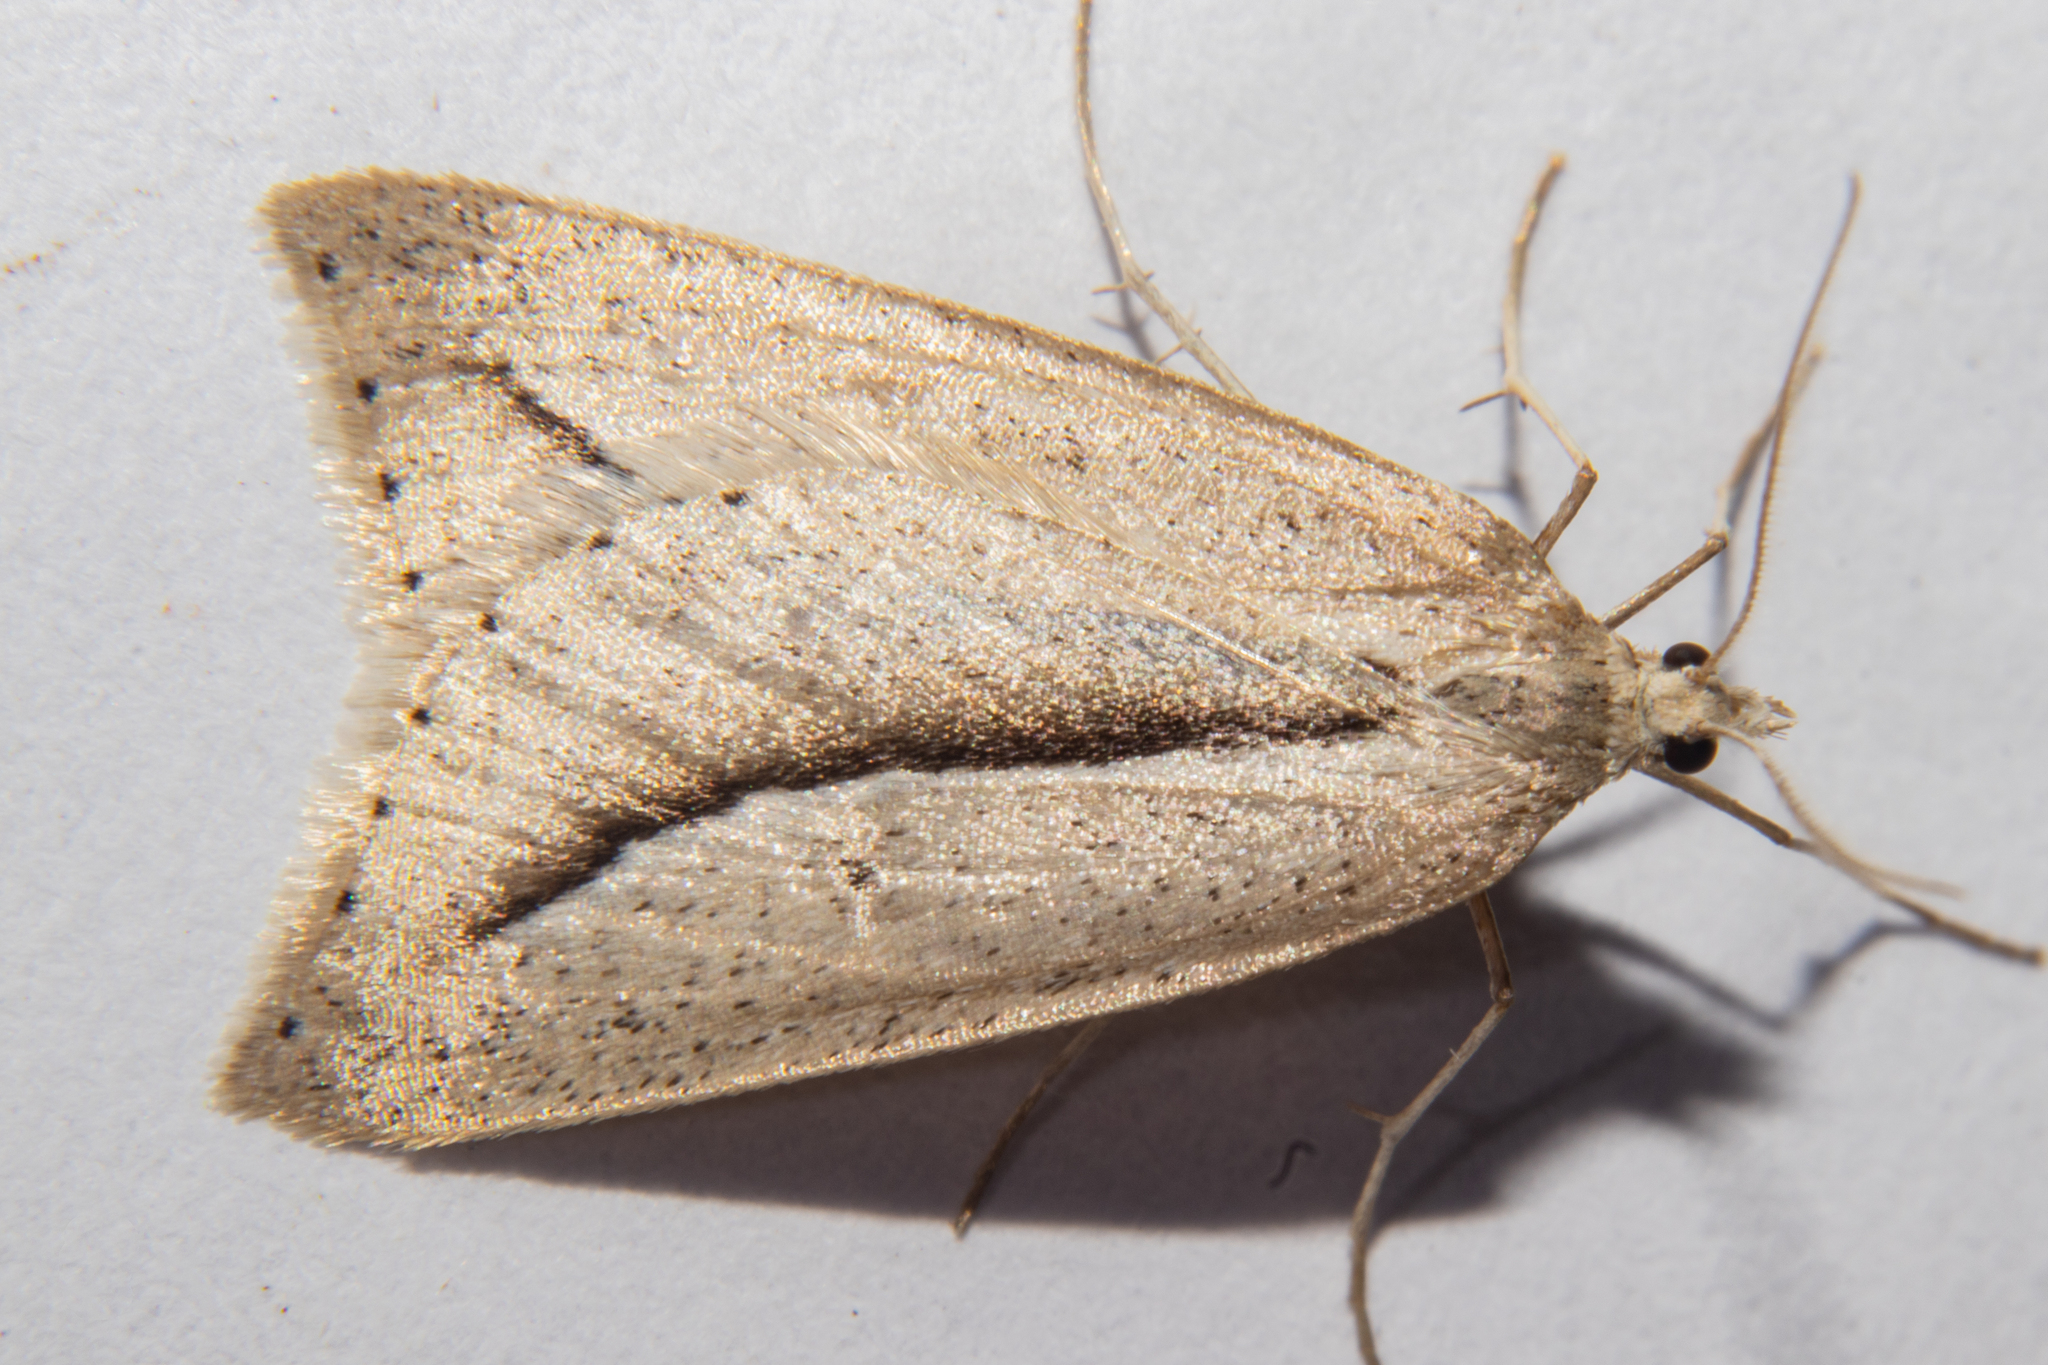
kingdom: Animalia
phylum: Arthropoda
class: Insecta
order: Lepidoptera
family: Geometridae
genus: Theoxena
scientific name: Theoxena scissaria
